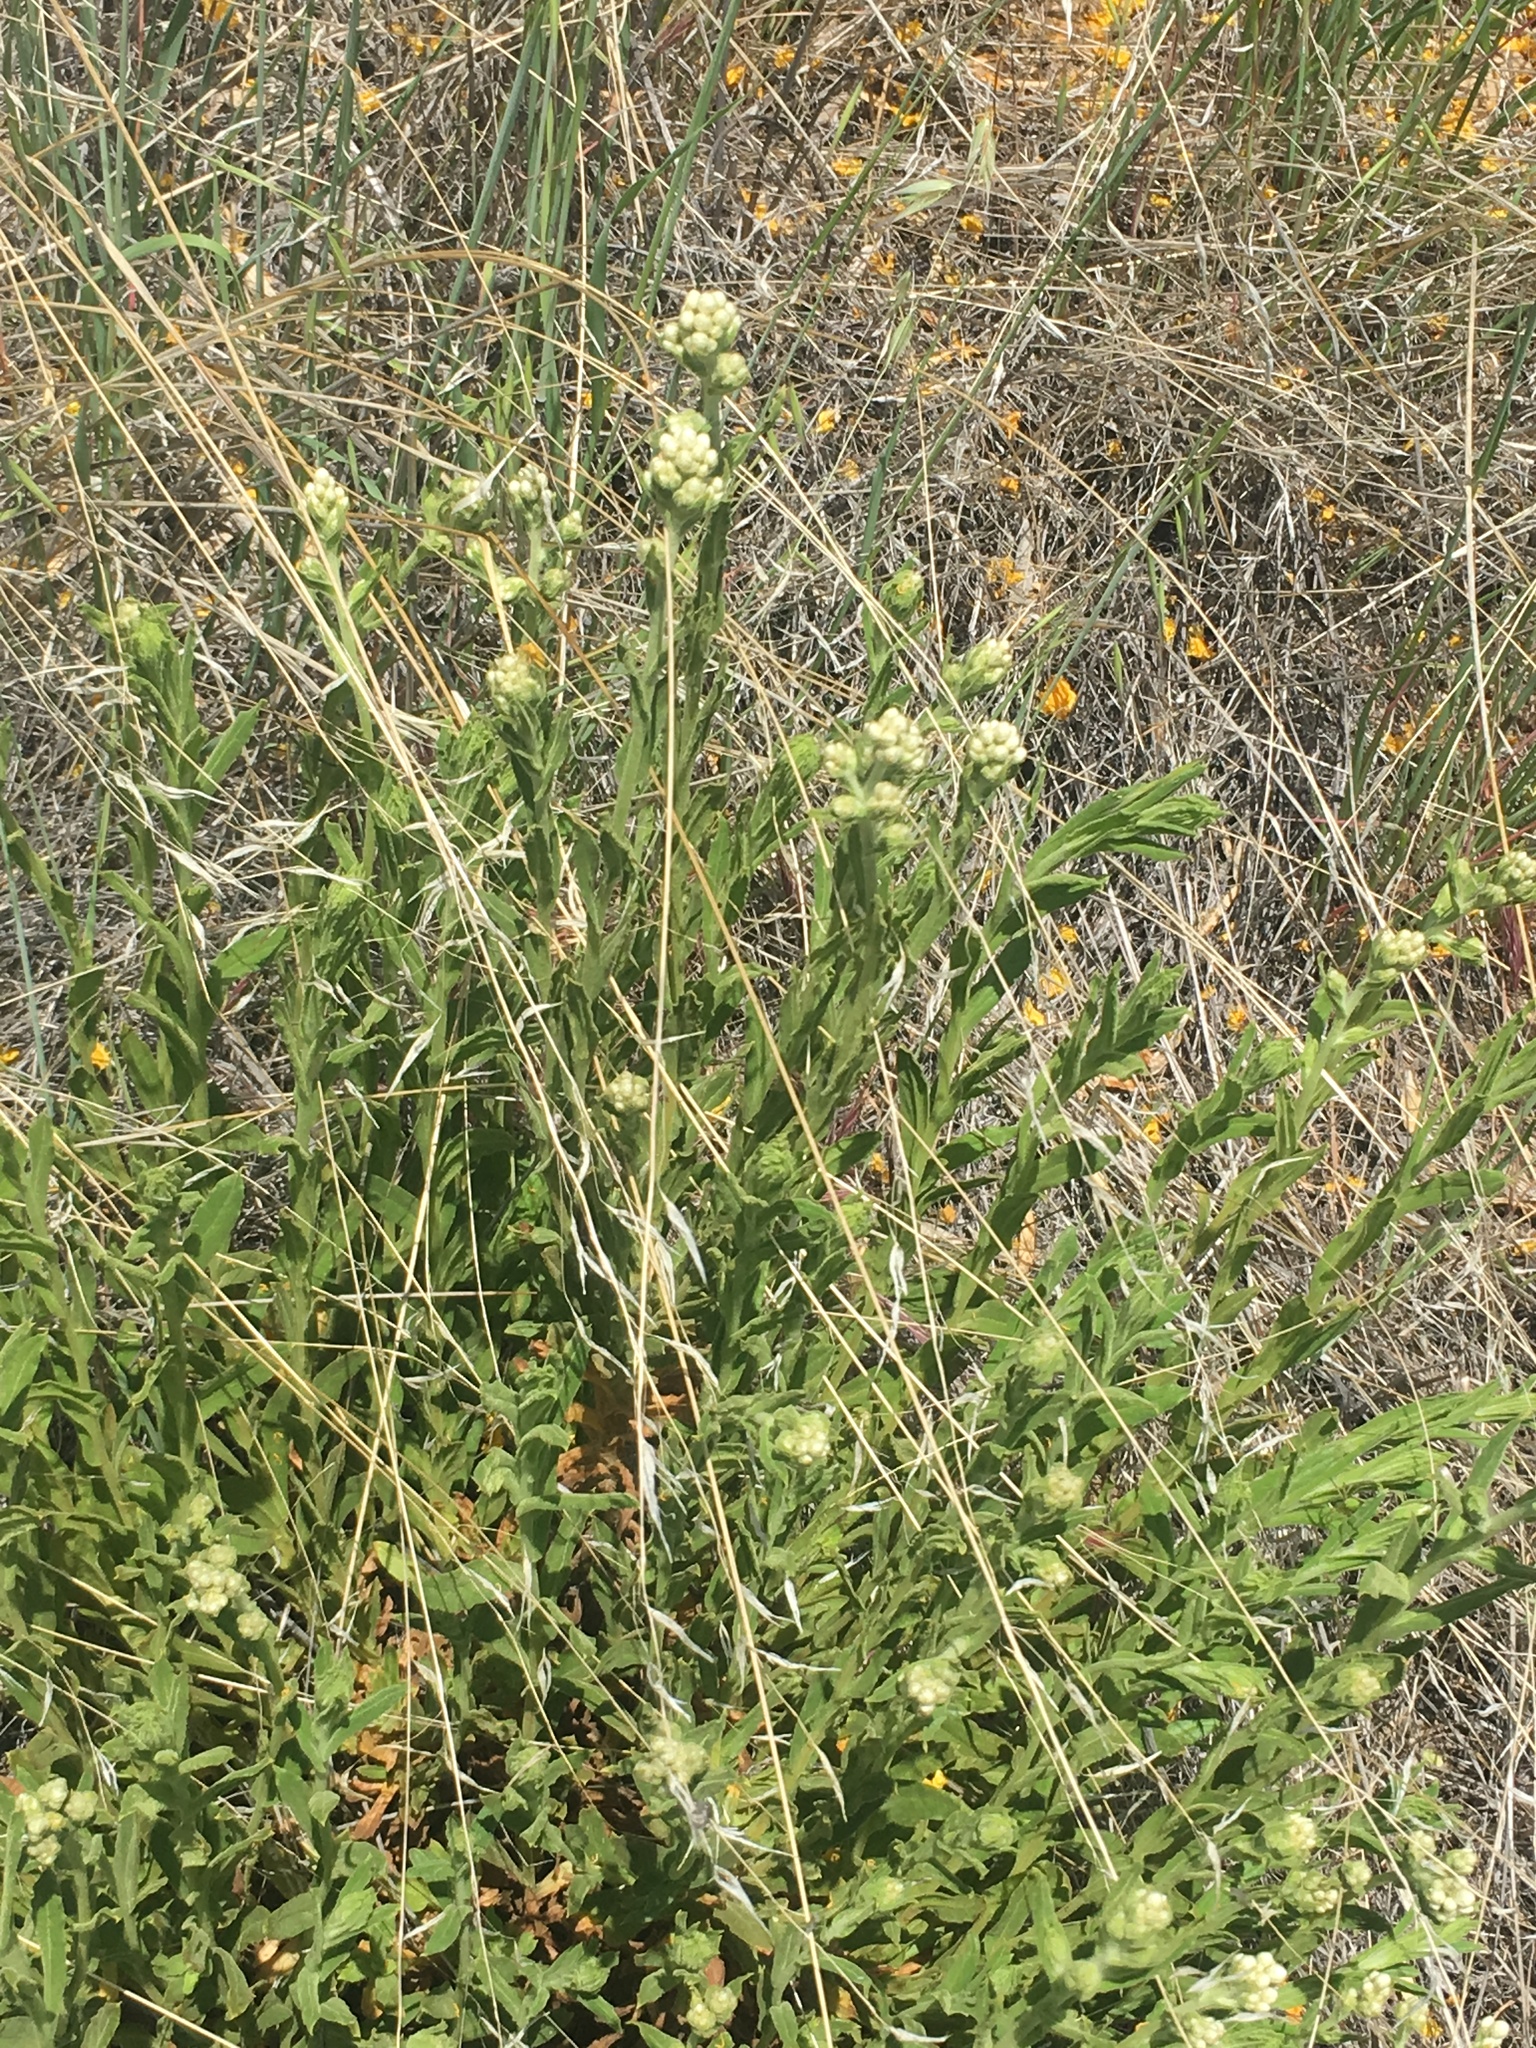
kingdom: Plantae
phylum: Tracheophyta
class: Magnoliopsida
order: Asterales
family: Asteraceae
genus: Pseudognaphalium
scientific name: Pseudognaphalium californicum
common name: California rabbit-tobacco
